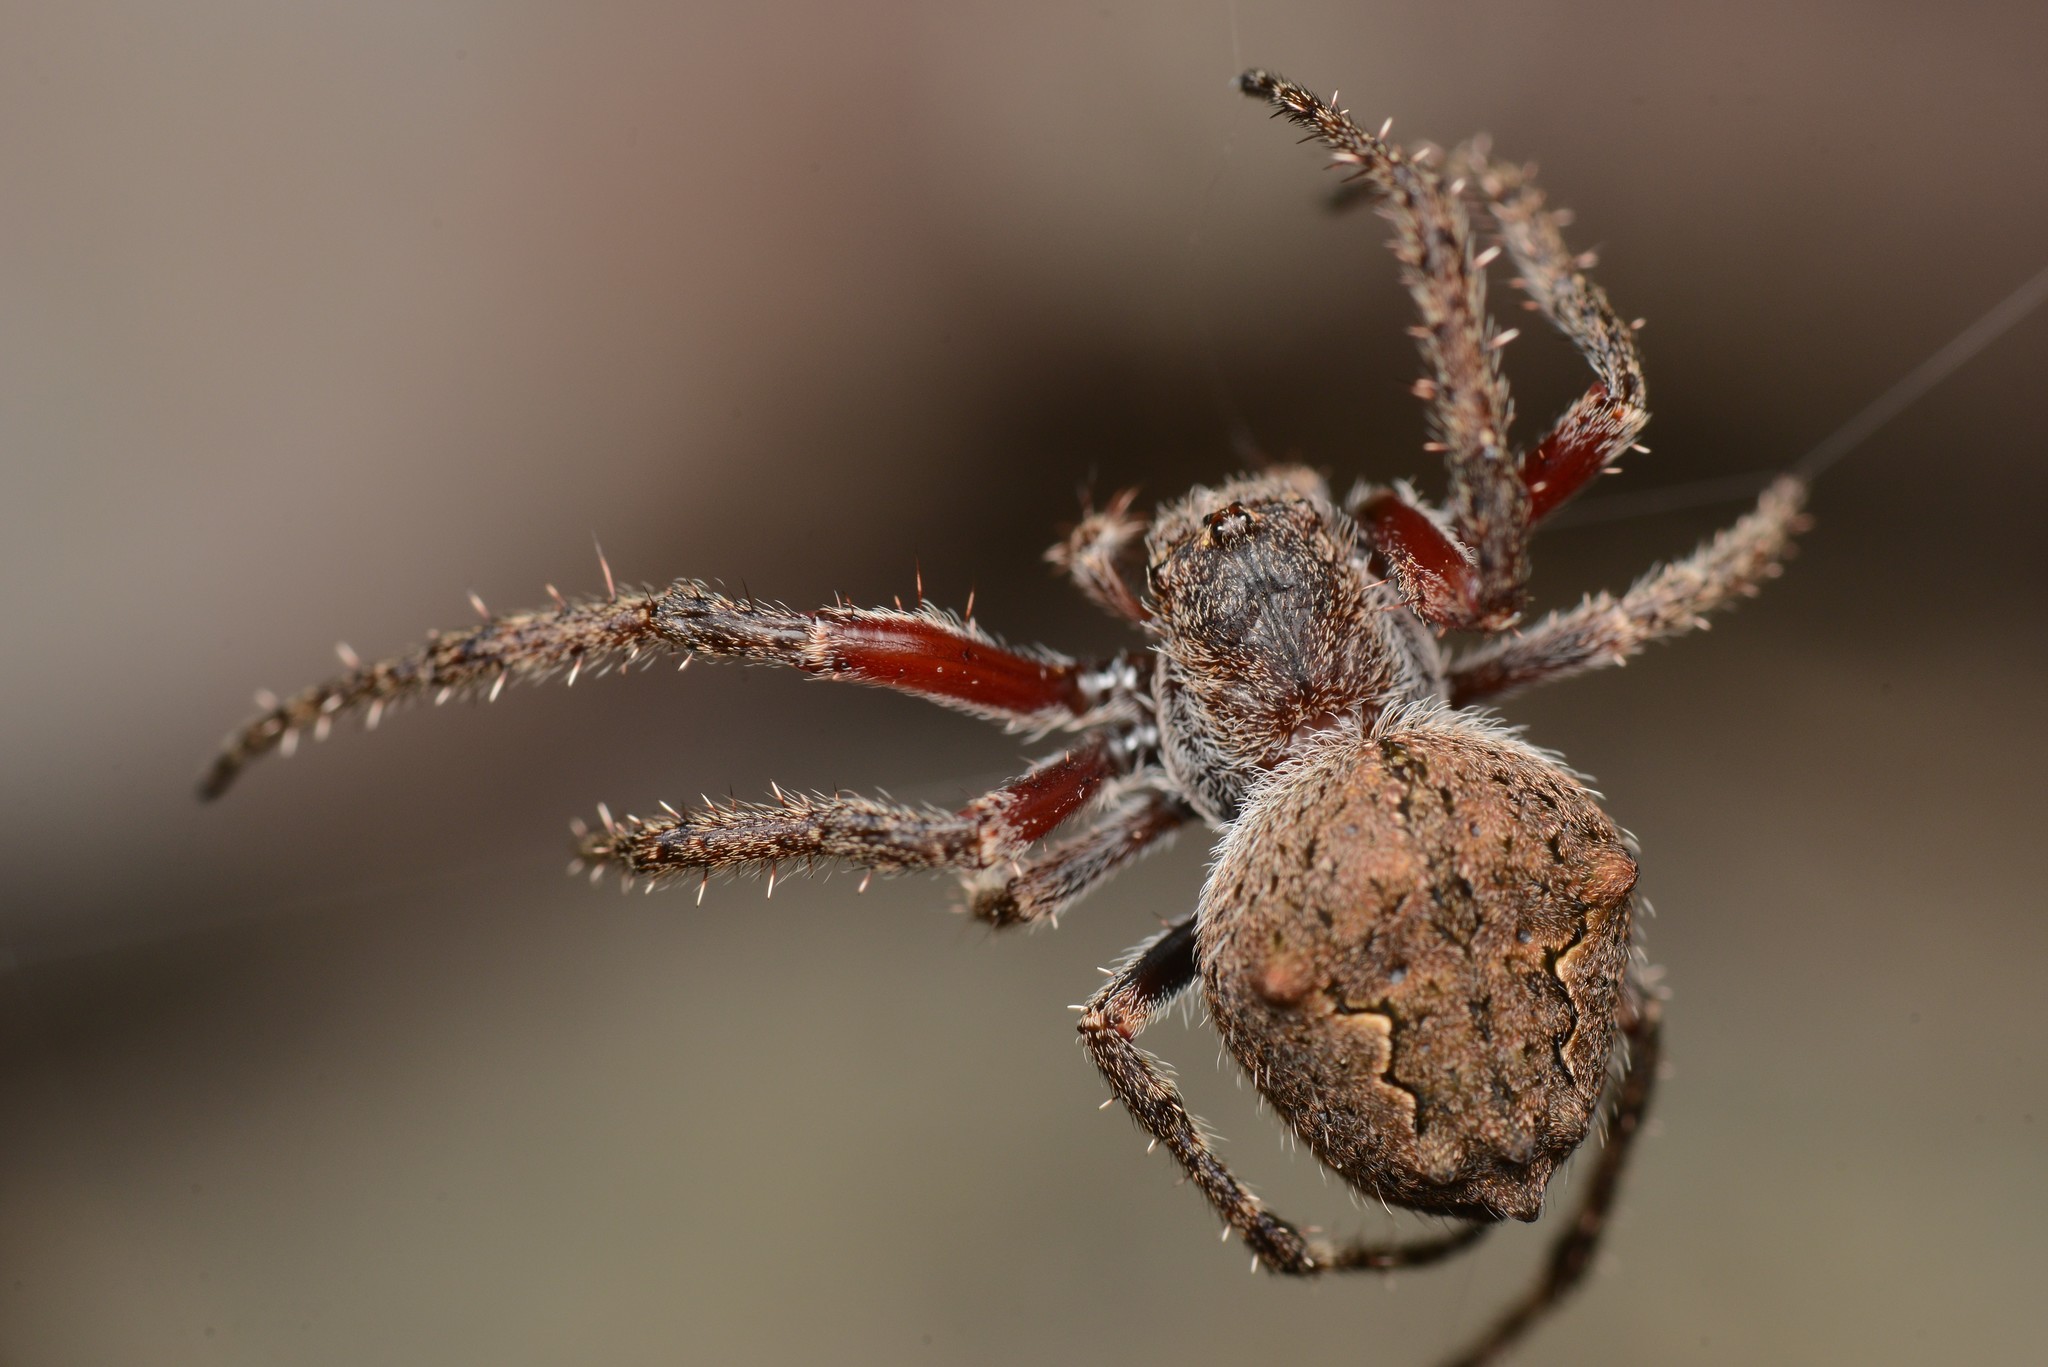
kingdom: Animalia
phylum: Arthropoda
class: Arachnida
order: Araneae
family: Araneidae
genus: Eriophora
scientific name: Eriophora pustulosa
